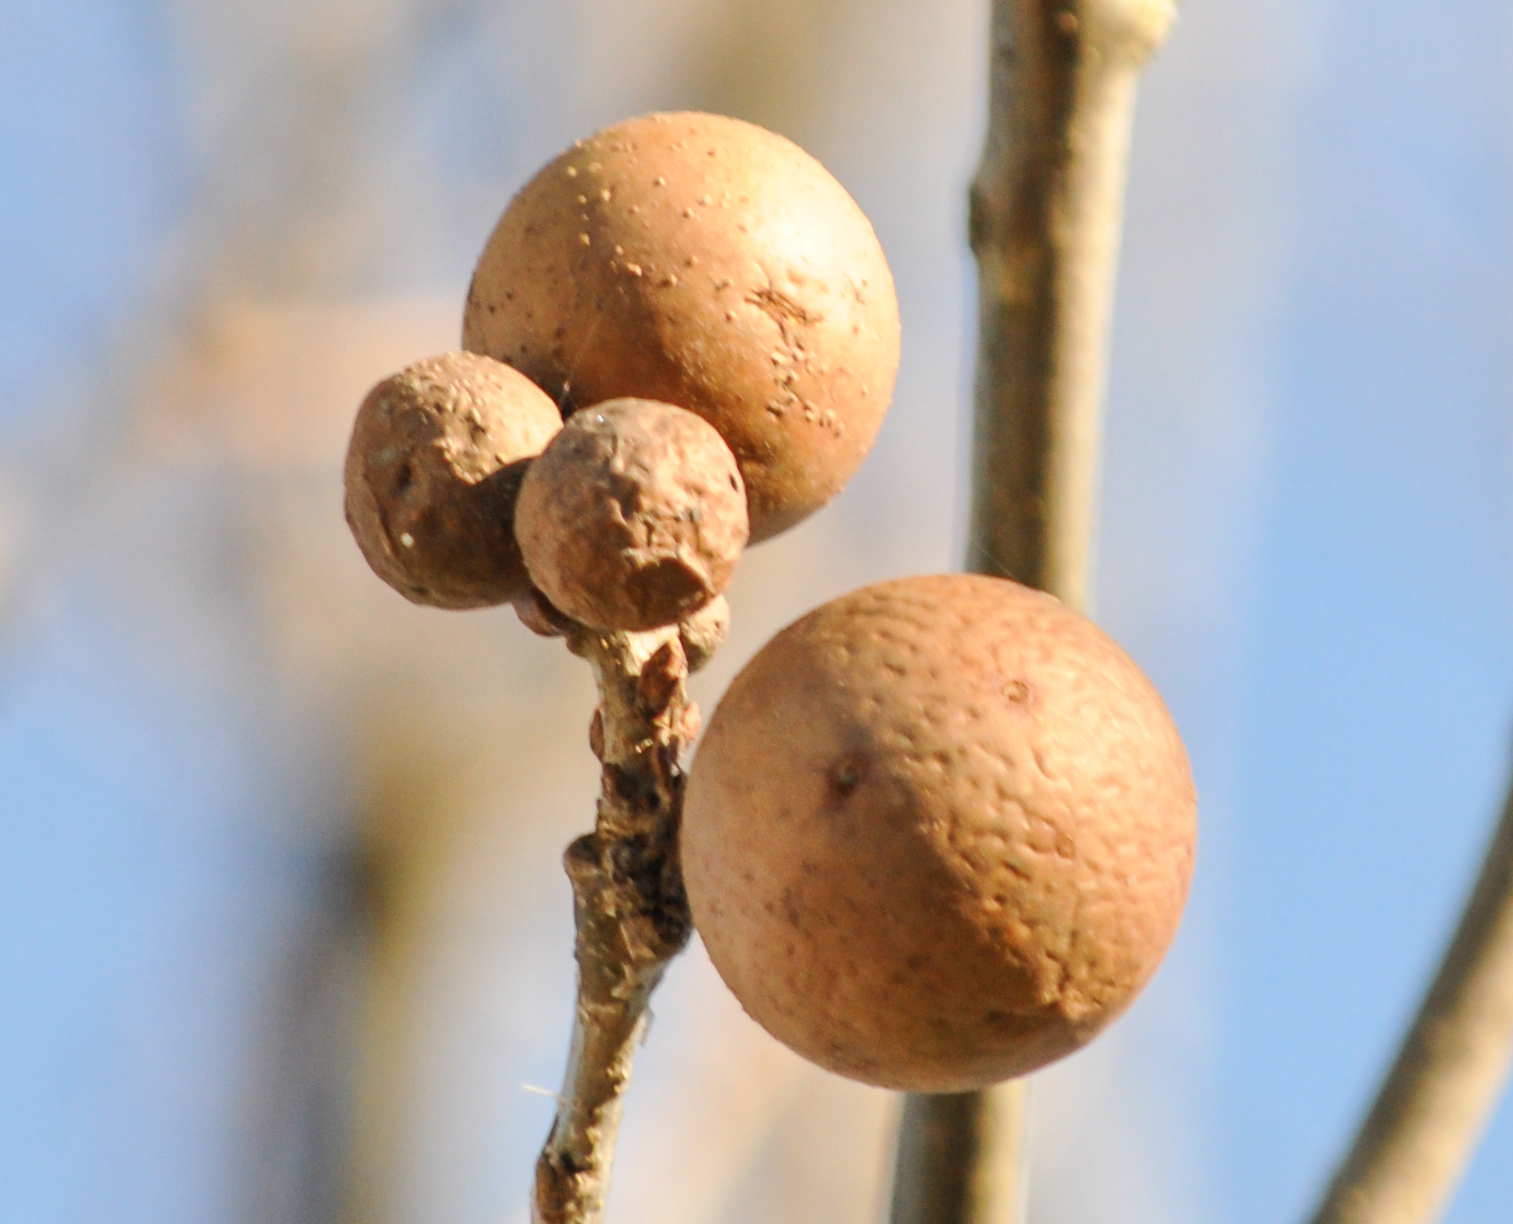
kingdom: Animalia
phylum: Arthropoda
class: Insecta
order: Hymenoptera
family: Cynipidae
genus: Andricus
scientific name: Andricus kollari
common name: Marble gall
